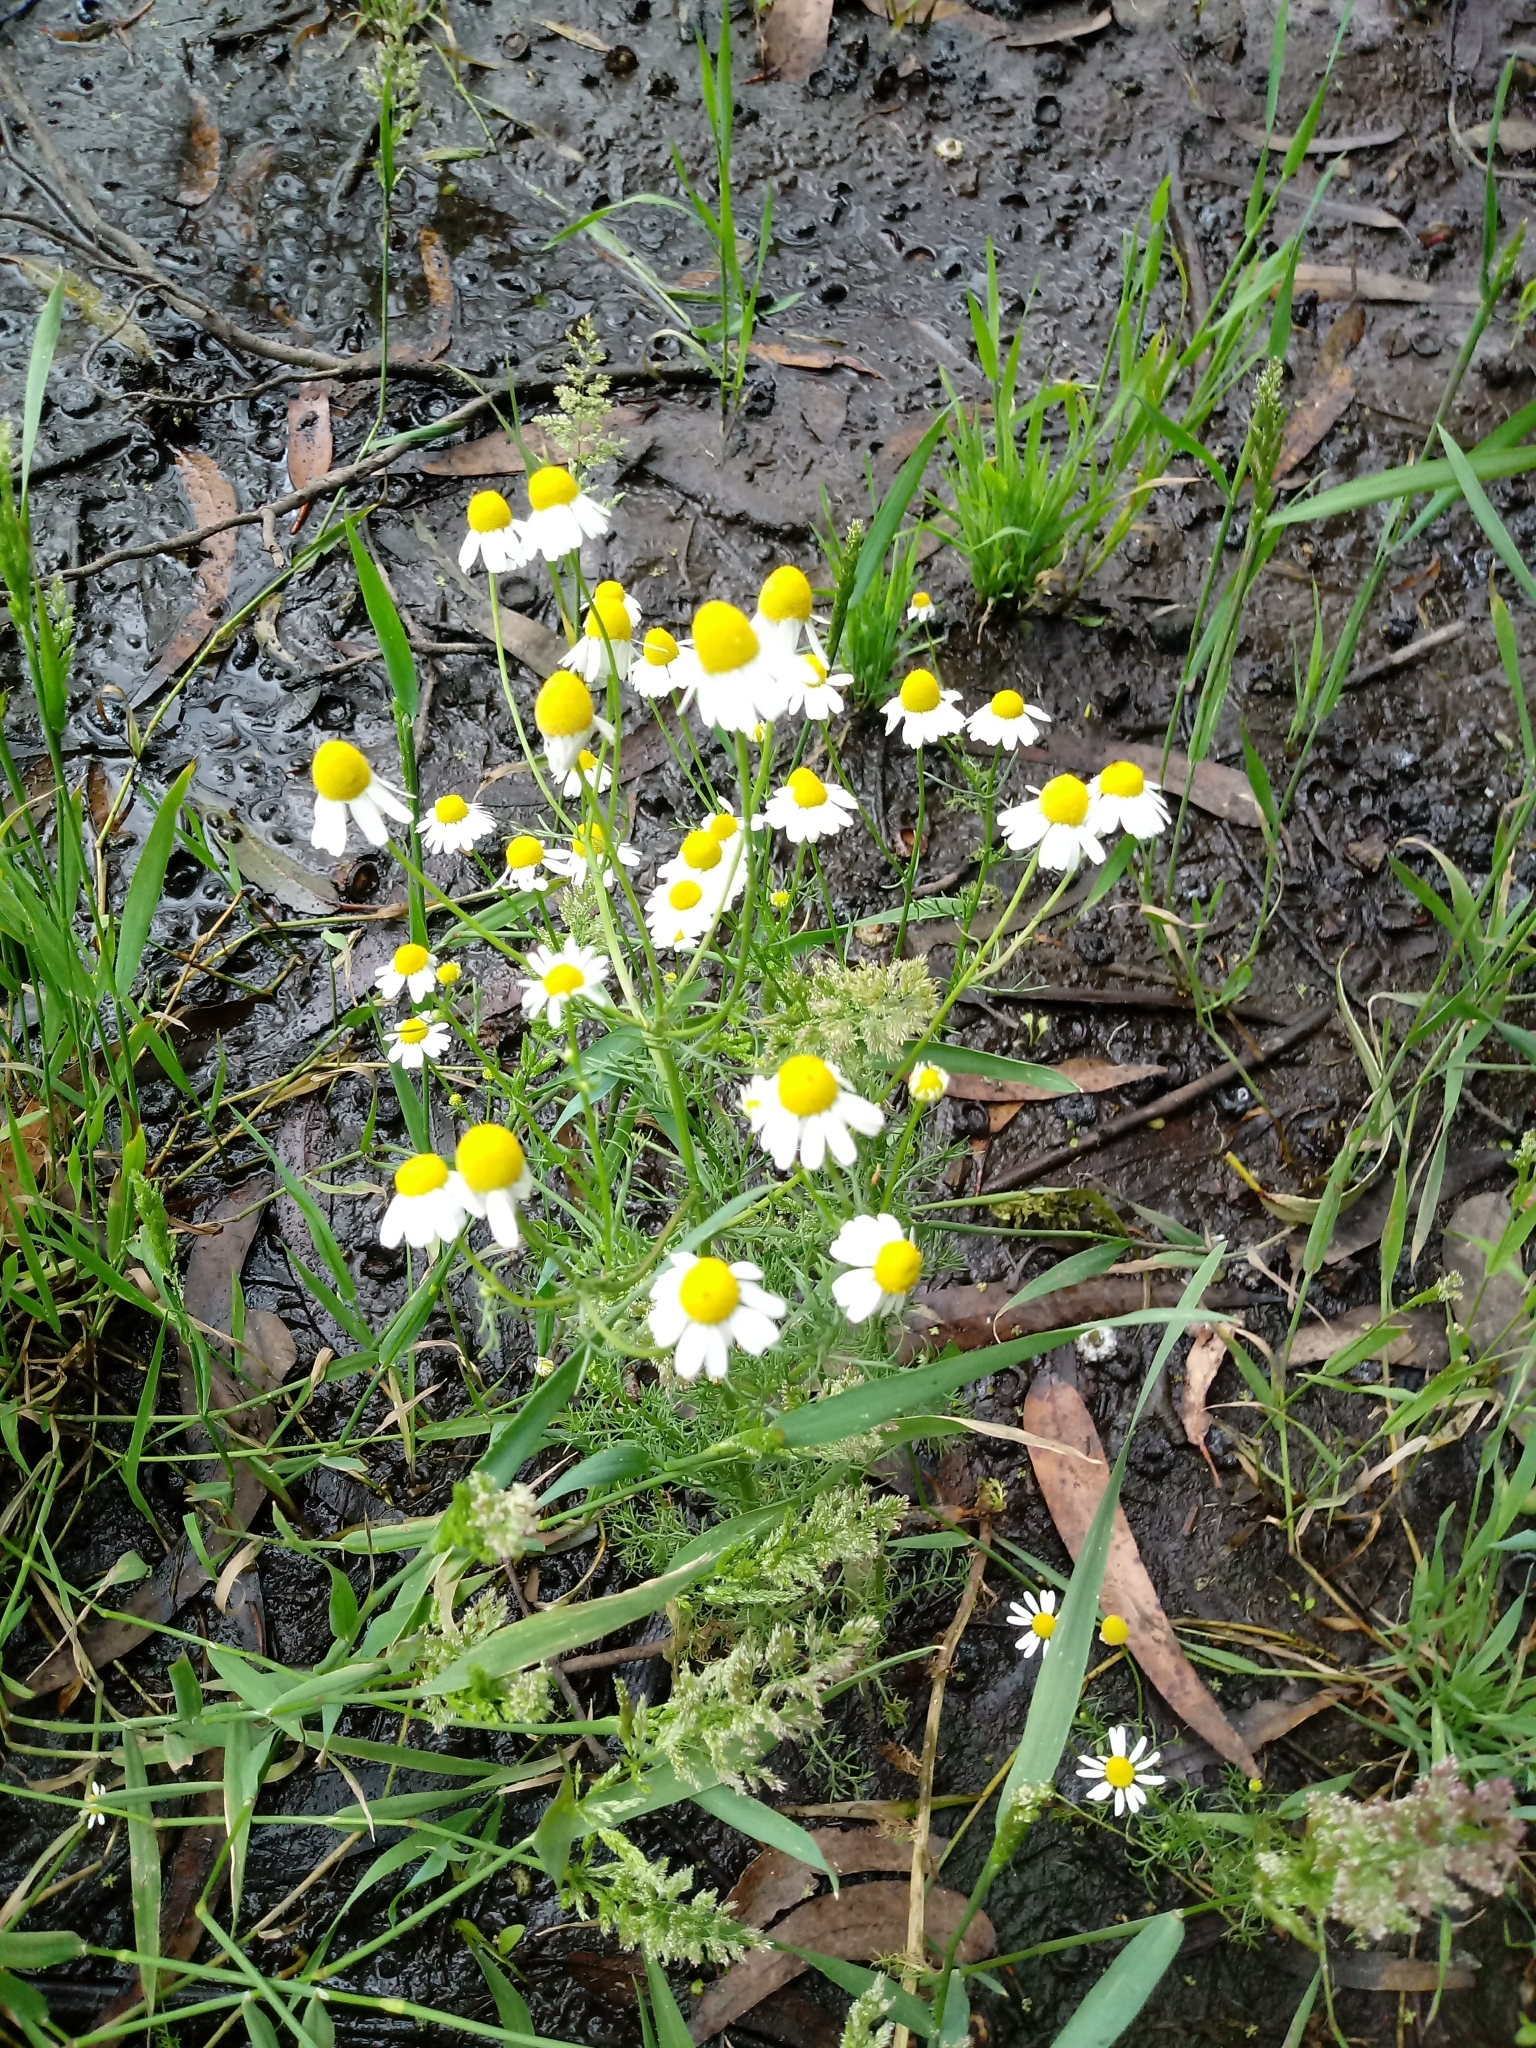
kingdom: Plantae
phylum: Tracheophyta
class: Magnoliopsida
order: Asterales
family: Asteraceae
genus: Anthemis
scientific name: Anthemis cotula
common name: Stinking chamomile
